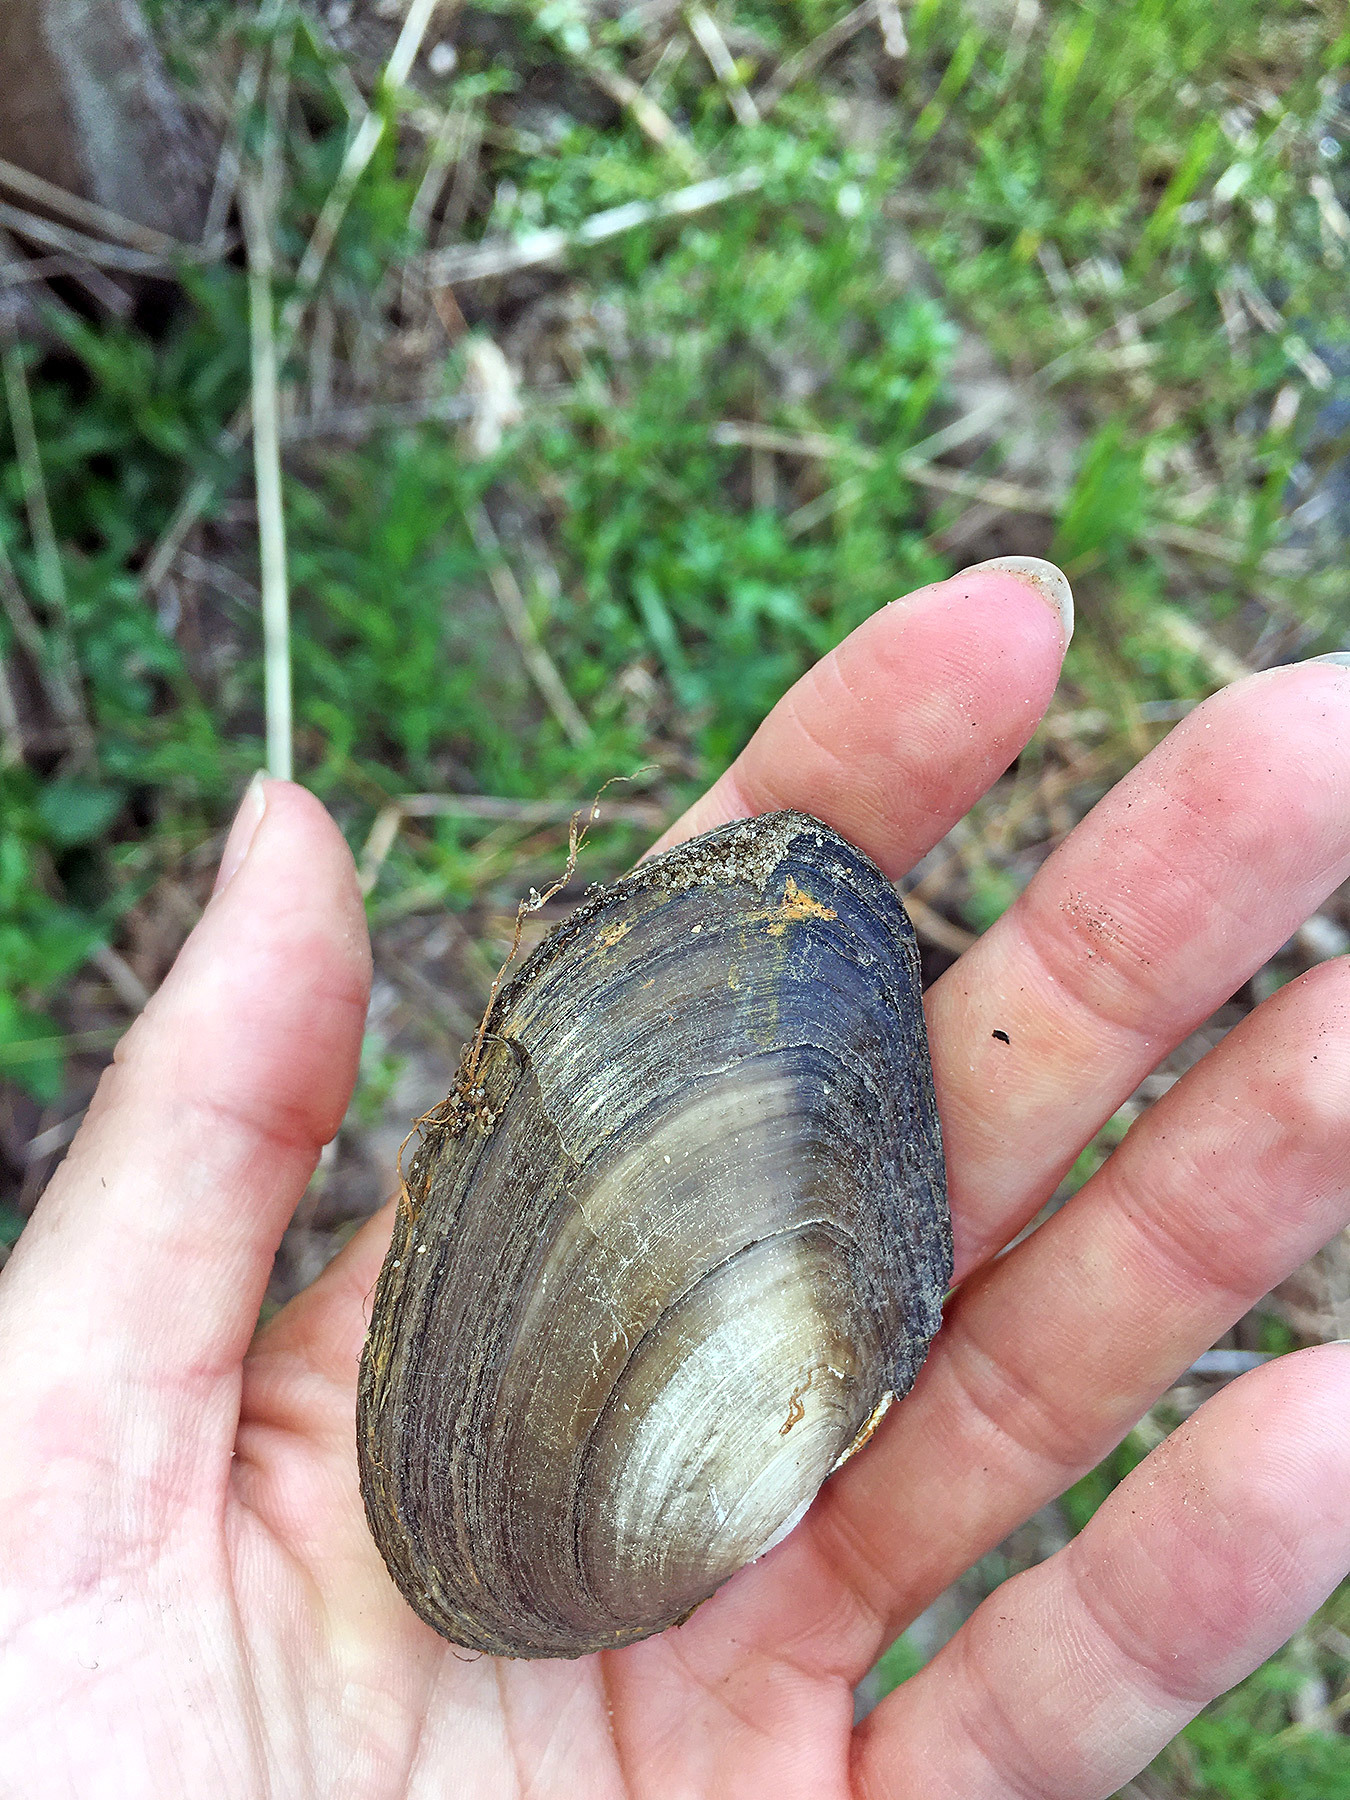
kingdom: Animalia
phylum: Mollusca
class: Bivalvia
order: Unionida
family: Unionidae
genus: Anodonta
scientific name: Anodonta anatina
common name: Duck mussel
